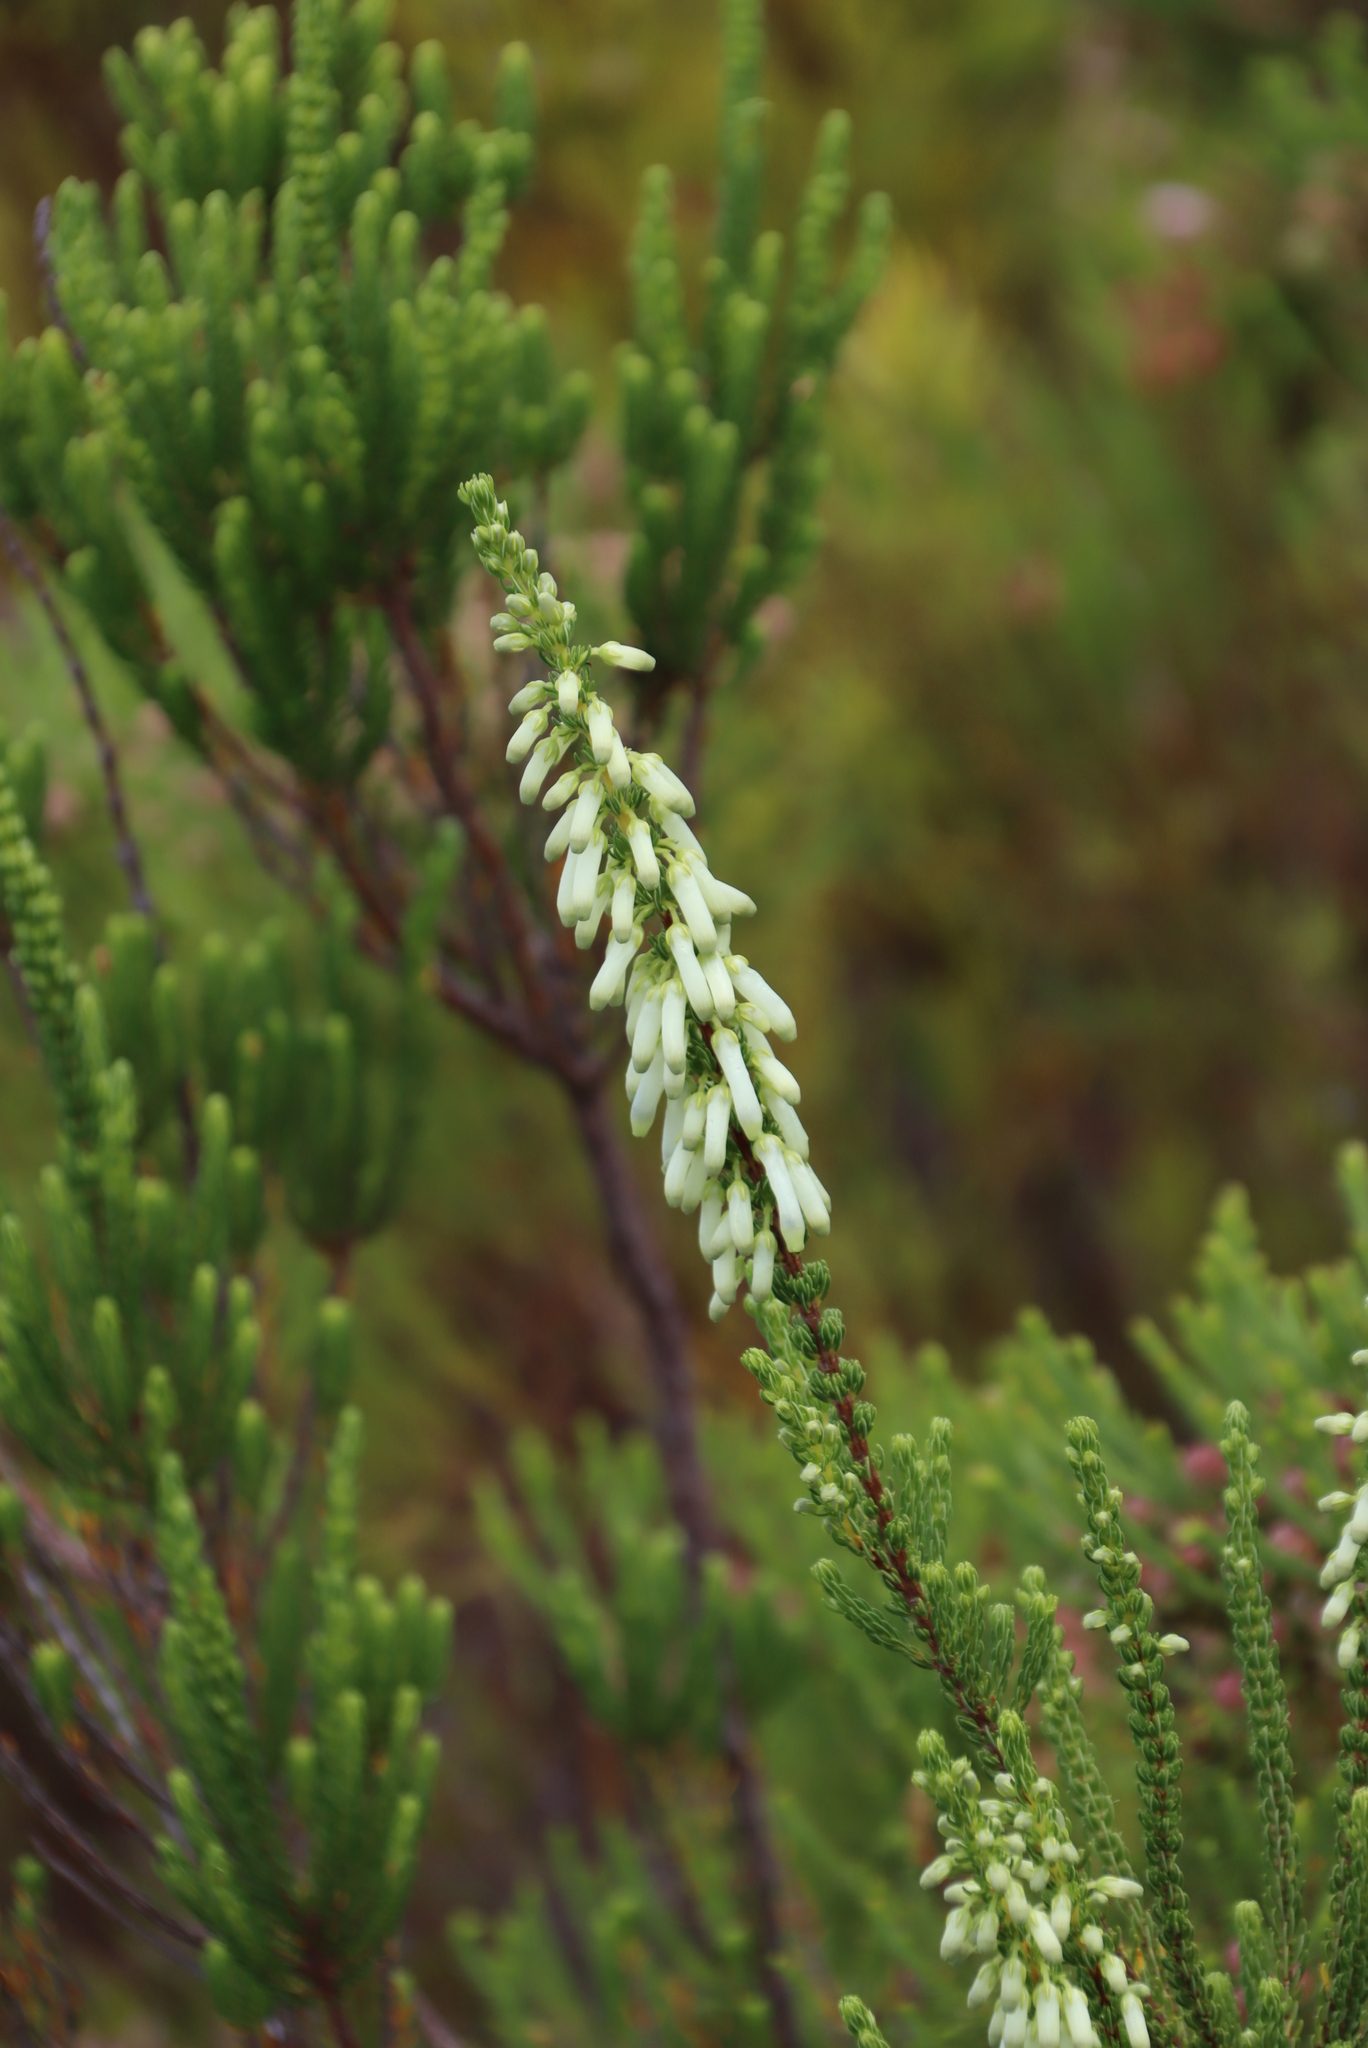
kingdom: Plantae
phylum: Tracheophyta
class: Magnoliopsida
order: Ericales
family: Ericaceae
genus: Erica
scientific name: Erica mammosa
